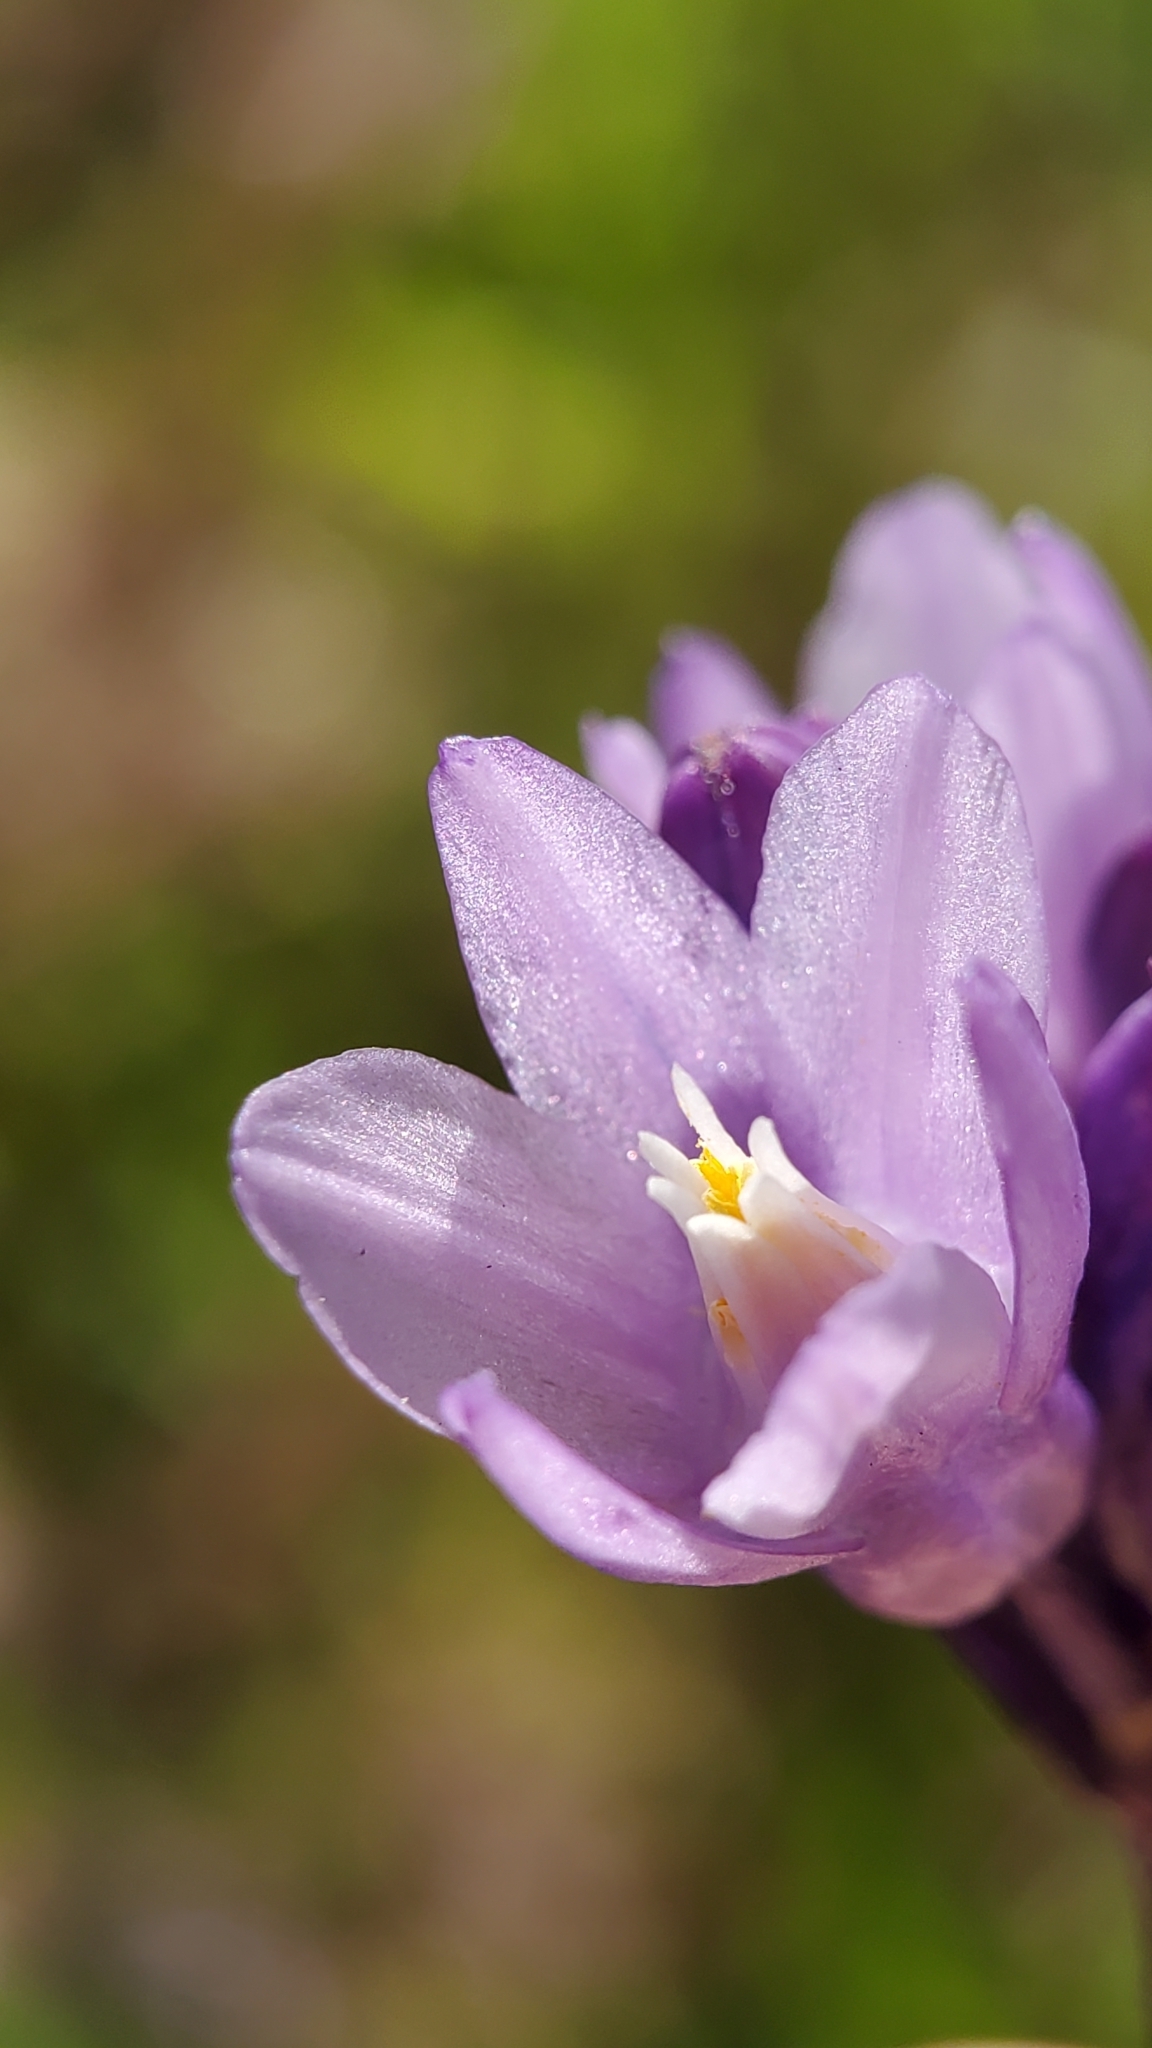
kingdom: Plantae
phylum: Tracheophyta
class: Liliopsida
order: Asparagales
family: Asparagaceae
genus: Dipterostemon
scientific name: Dipterostemon capitatus
